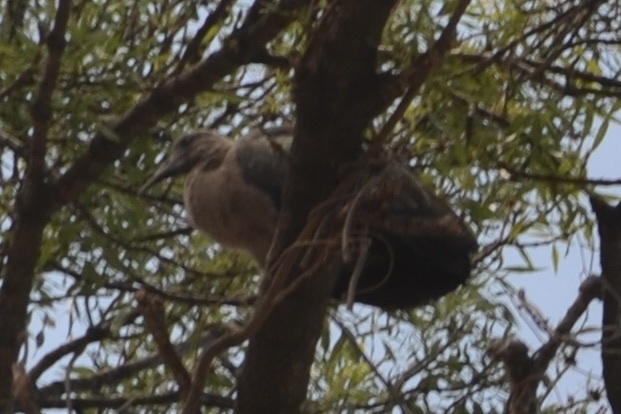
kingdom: Animalia
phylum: Chordata
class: Aves
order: Pelecaniformes
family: Threskiornithidae
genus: Bostrychia
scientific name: Bostrychia hagedash
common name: Hadada ibis
